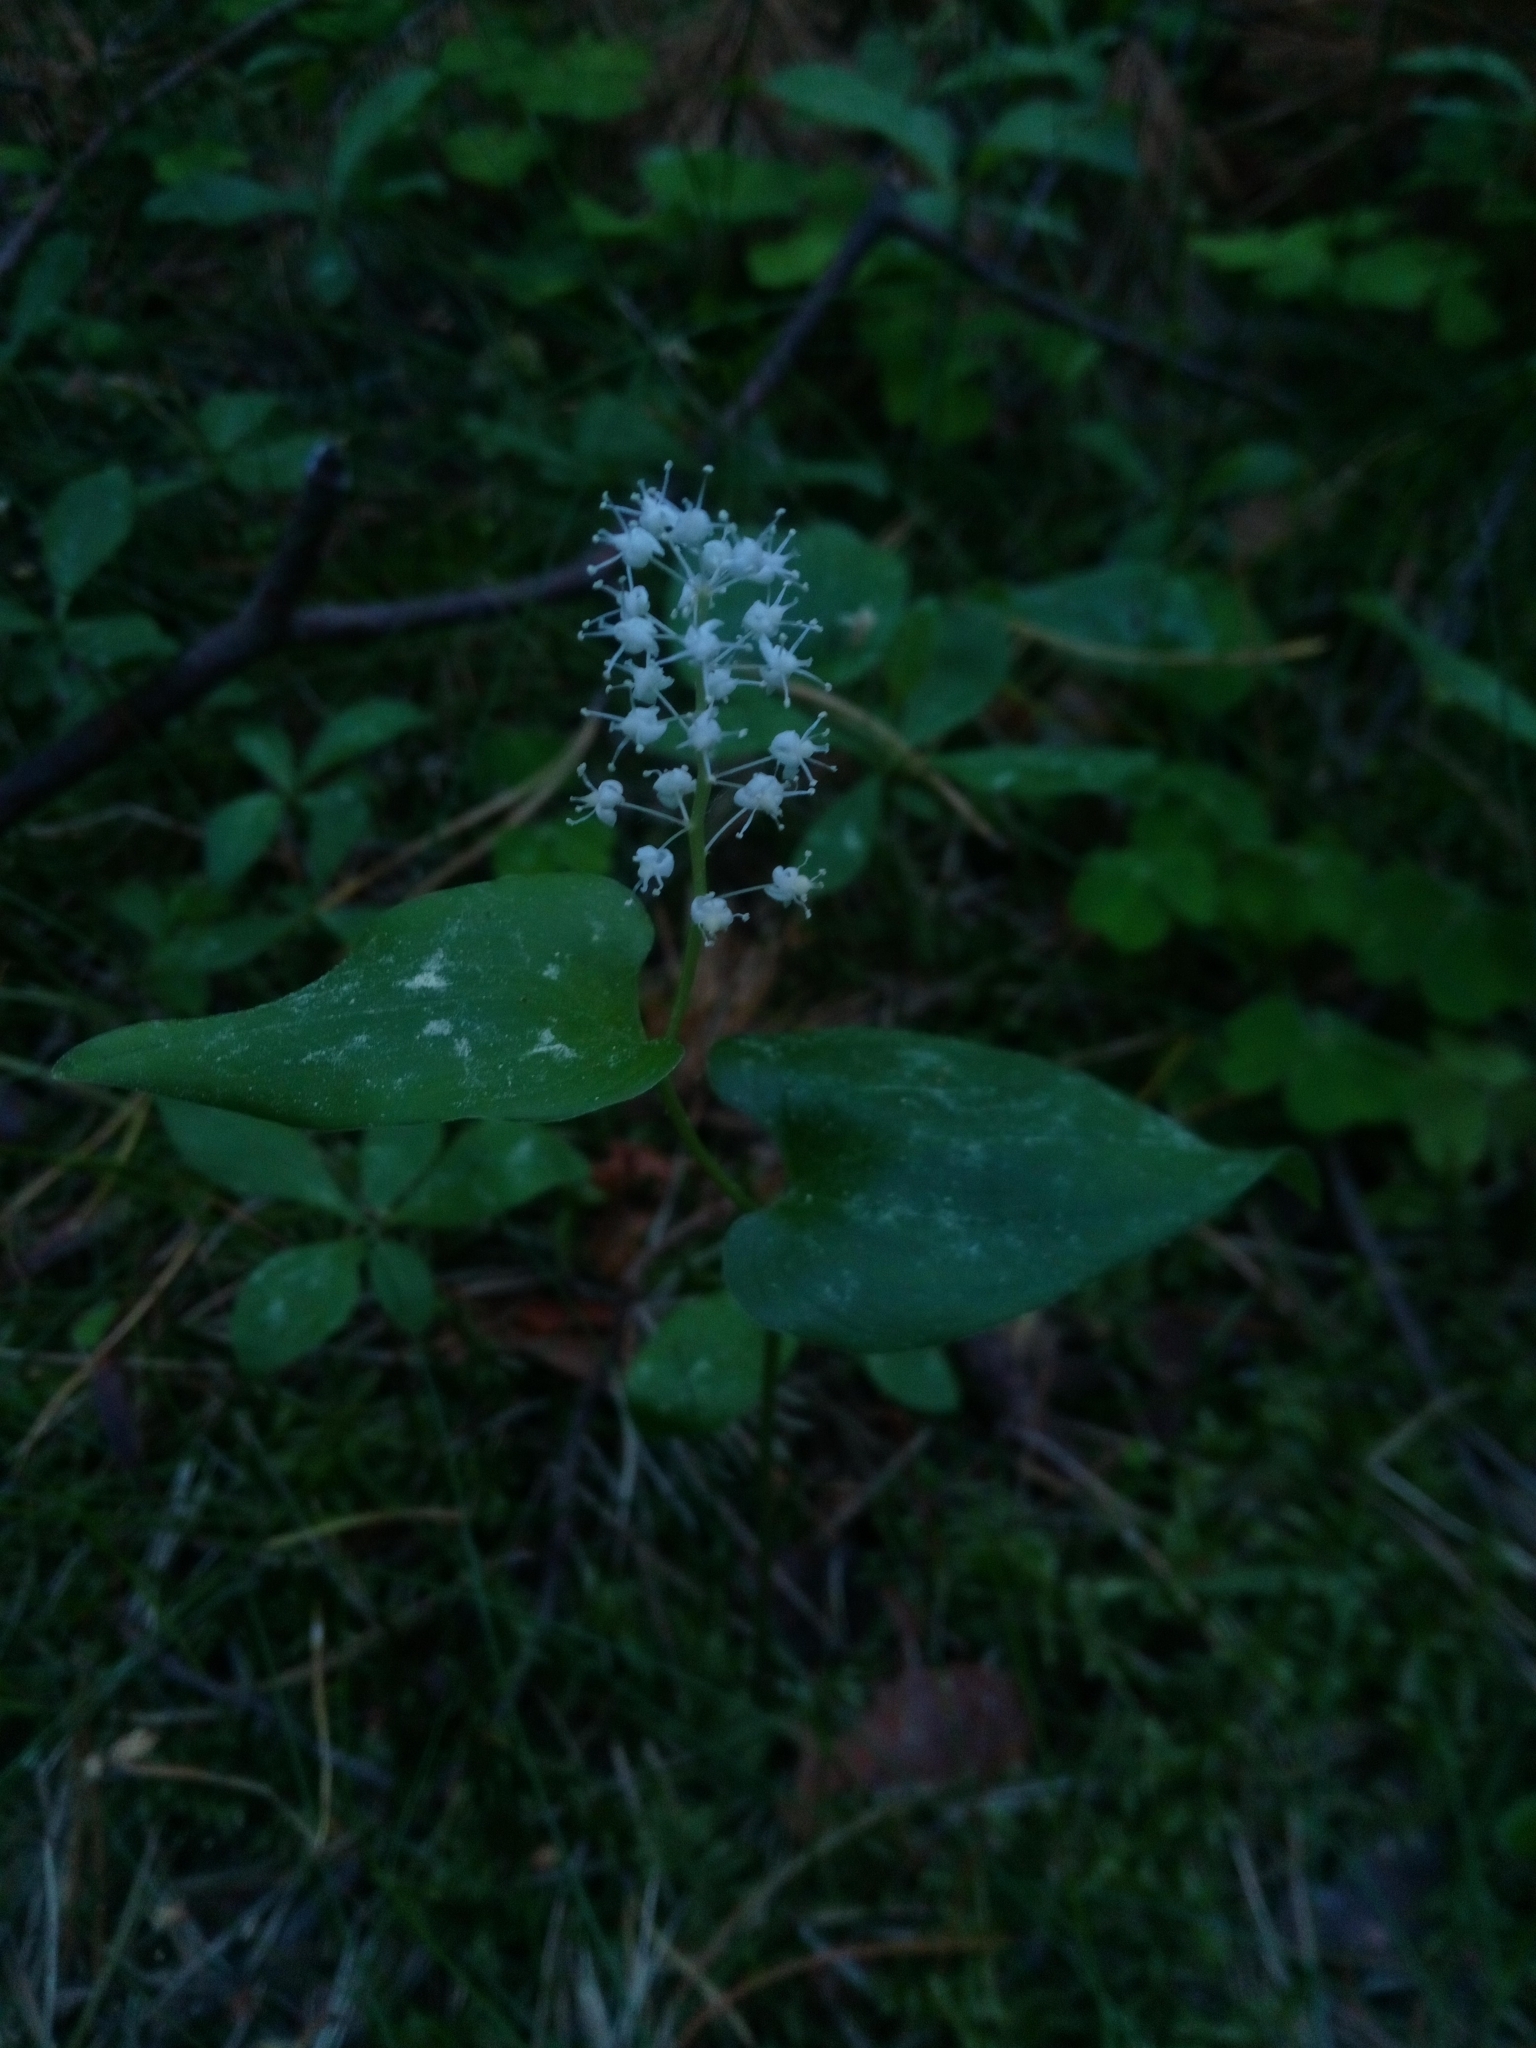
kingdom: Plantae
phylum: Tracheophyta
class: Liliopsida
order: Asparagales
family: Asparagaceae
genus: Maianthemum
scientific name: Maianthemum bifolium
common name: May lily
